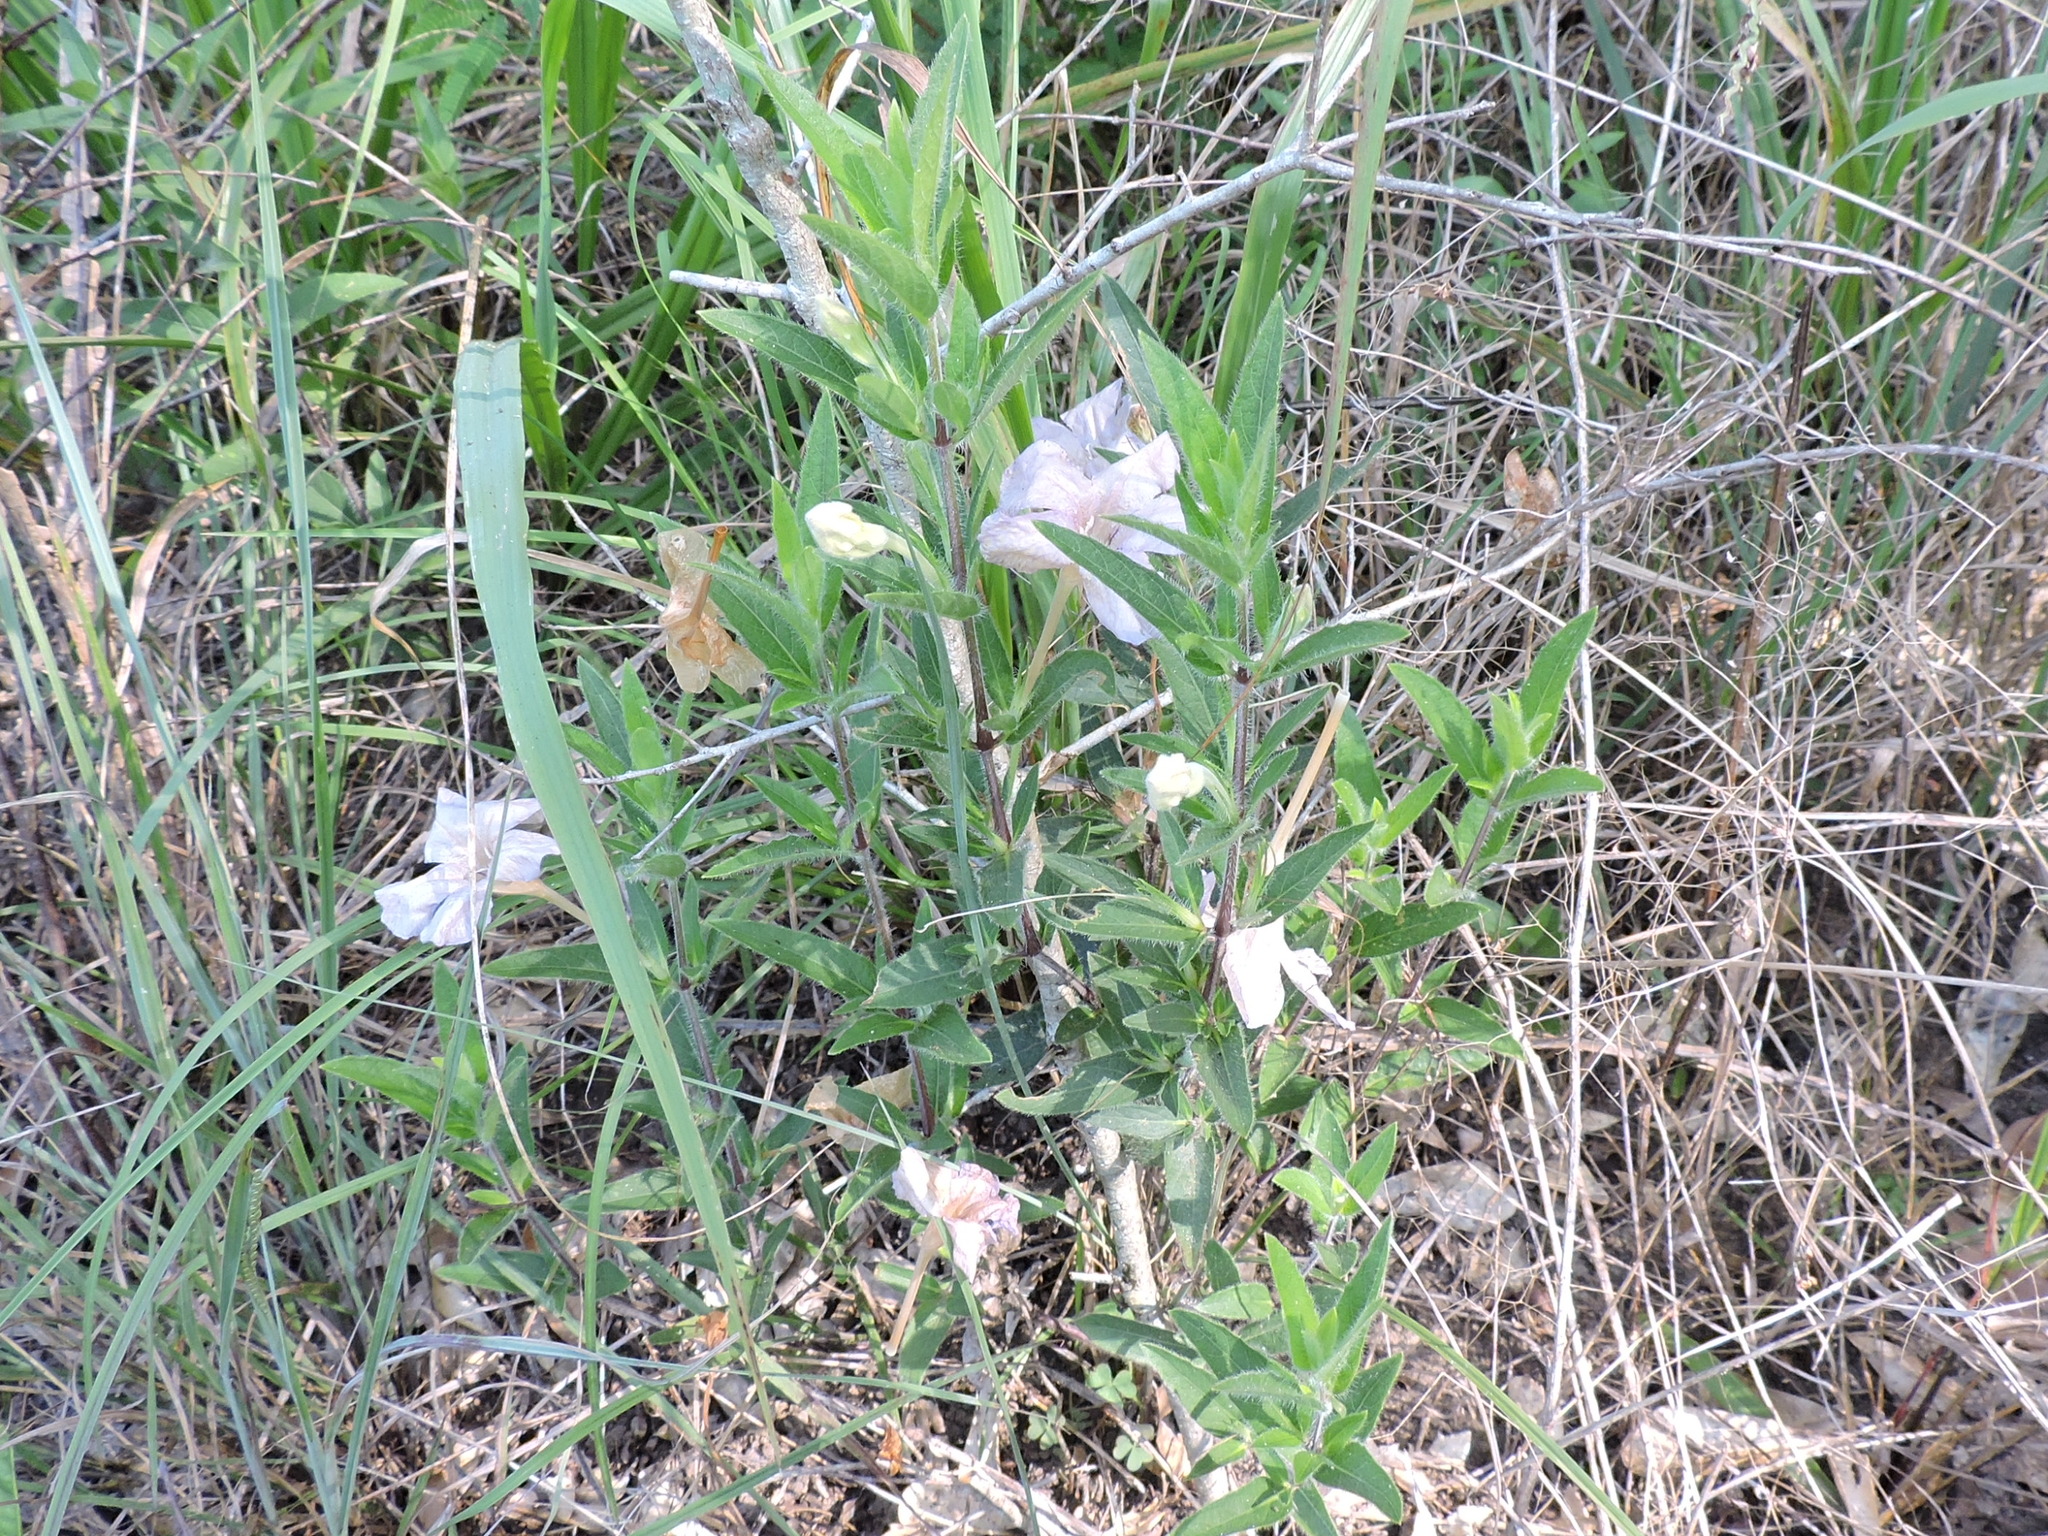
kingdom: Plantae
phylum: Tracheophyta
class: Magnoliopsida
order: Lamiales
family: Acanthaceae
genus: Ruellia
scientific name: Ruellia humilis
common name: Fringe-leaf ruellia
